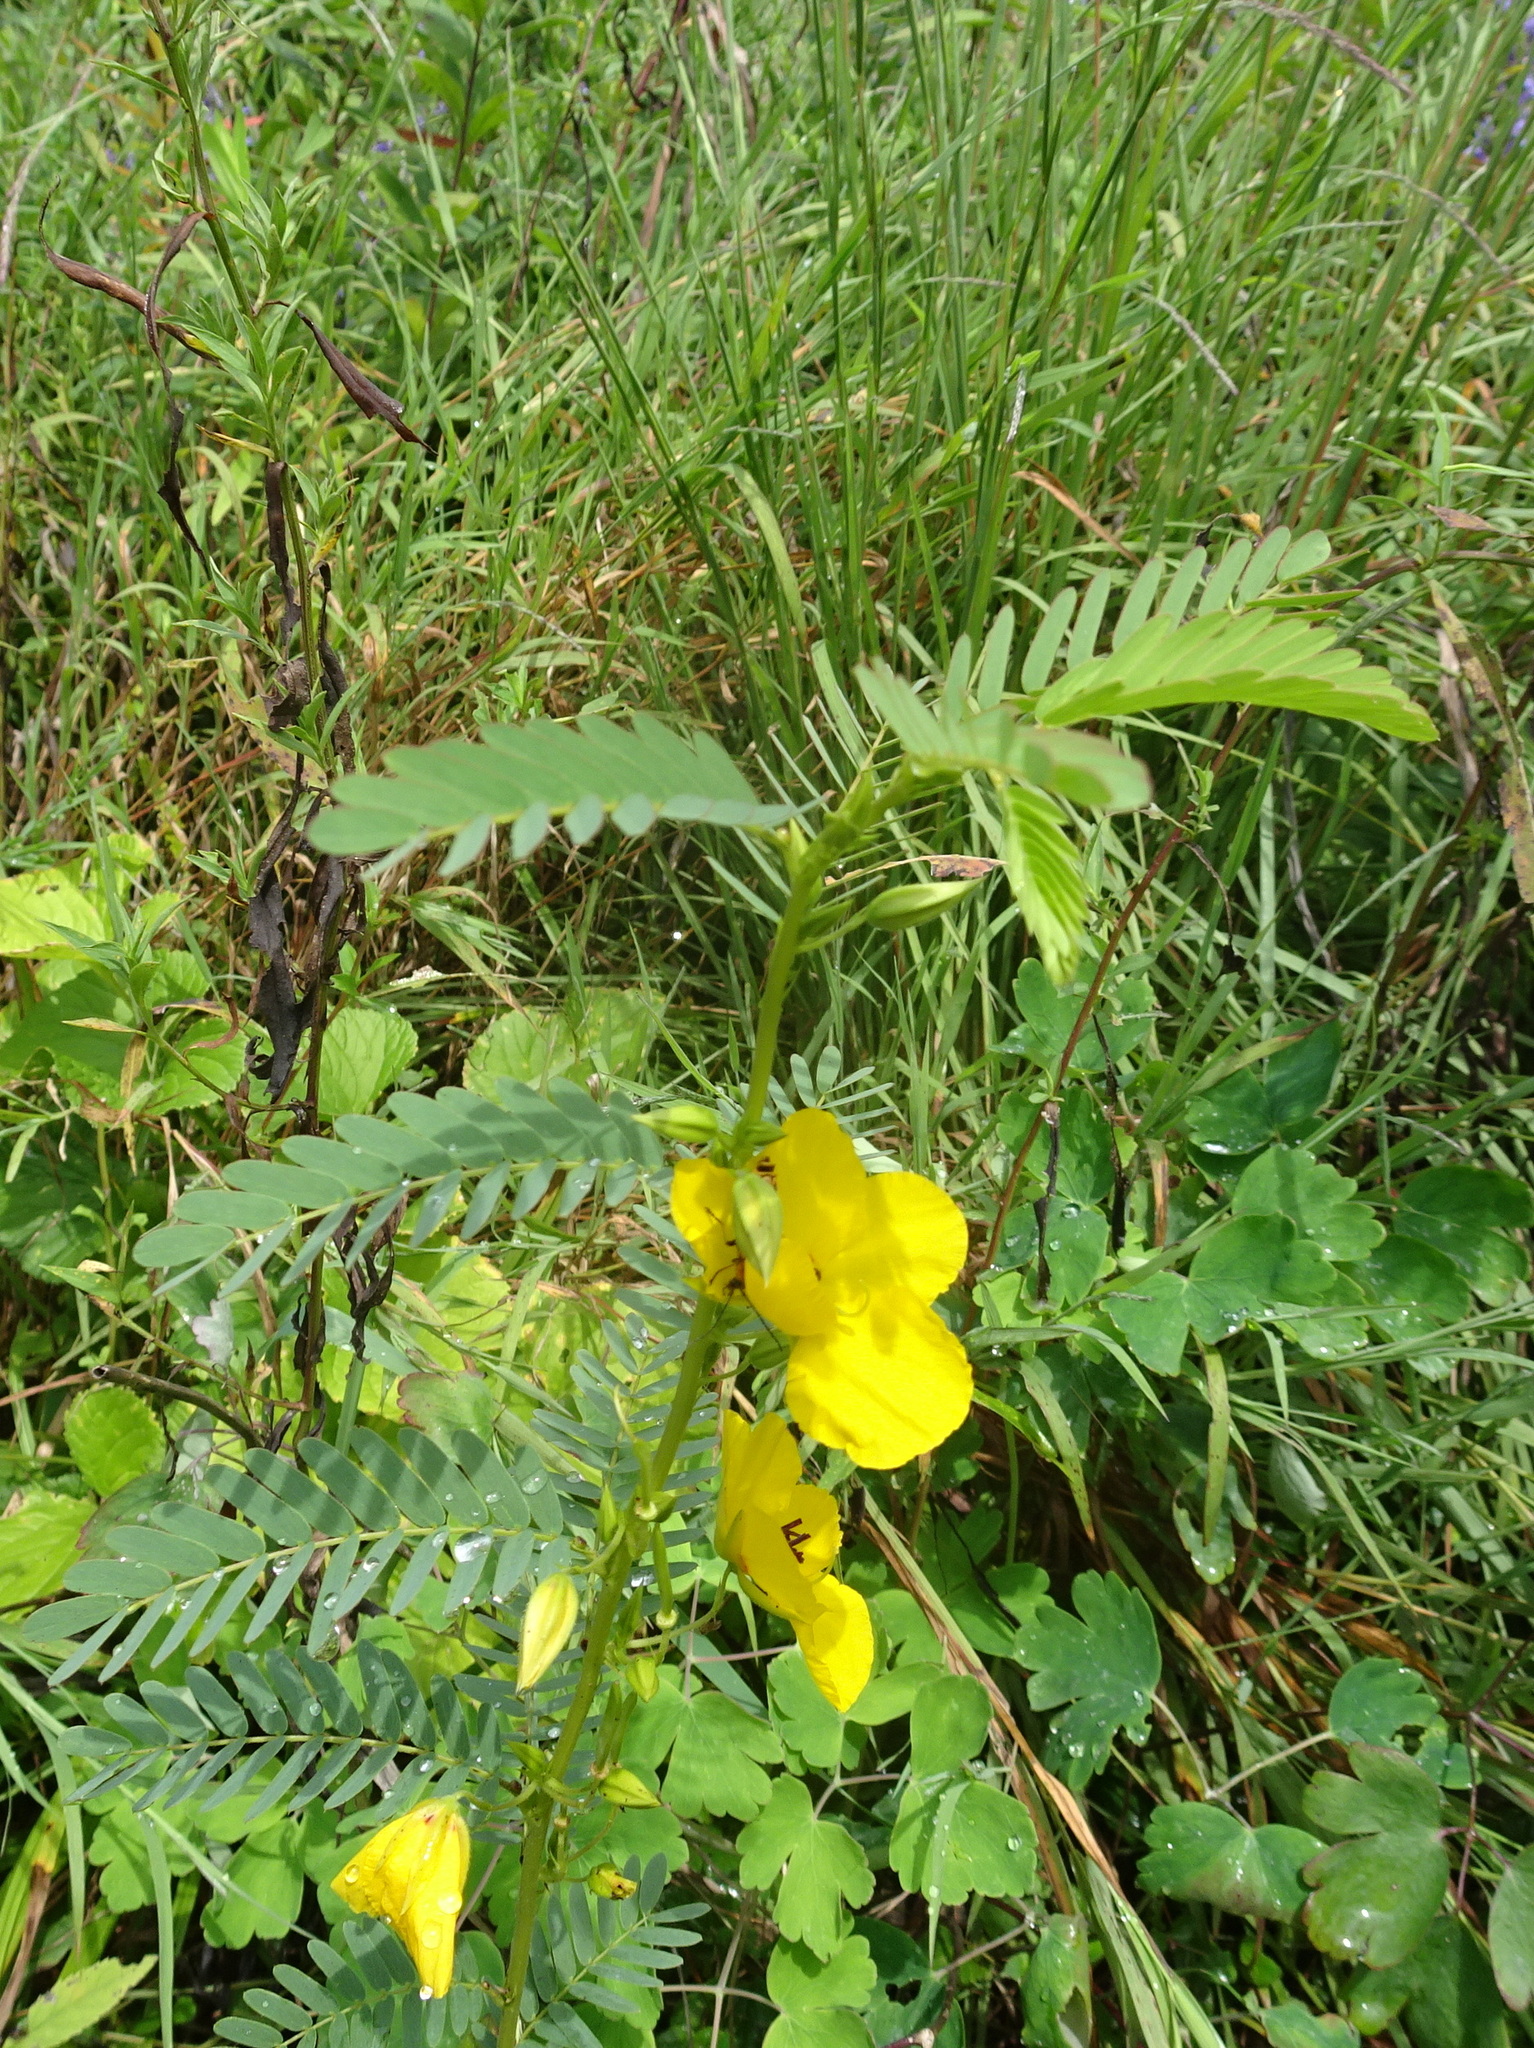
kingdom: Plantae
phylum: Tracheophyta
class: Magnoliopsida
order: Fabales
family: Fabaceae
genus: Chamaecrista
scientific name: Chamaecrista fasciculata
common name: Golden cassia
